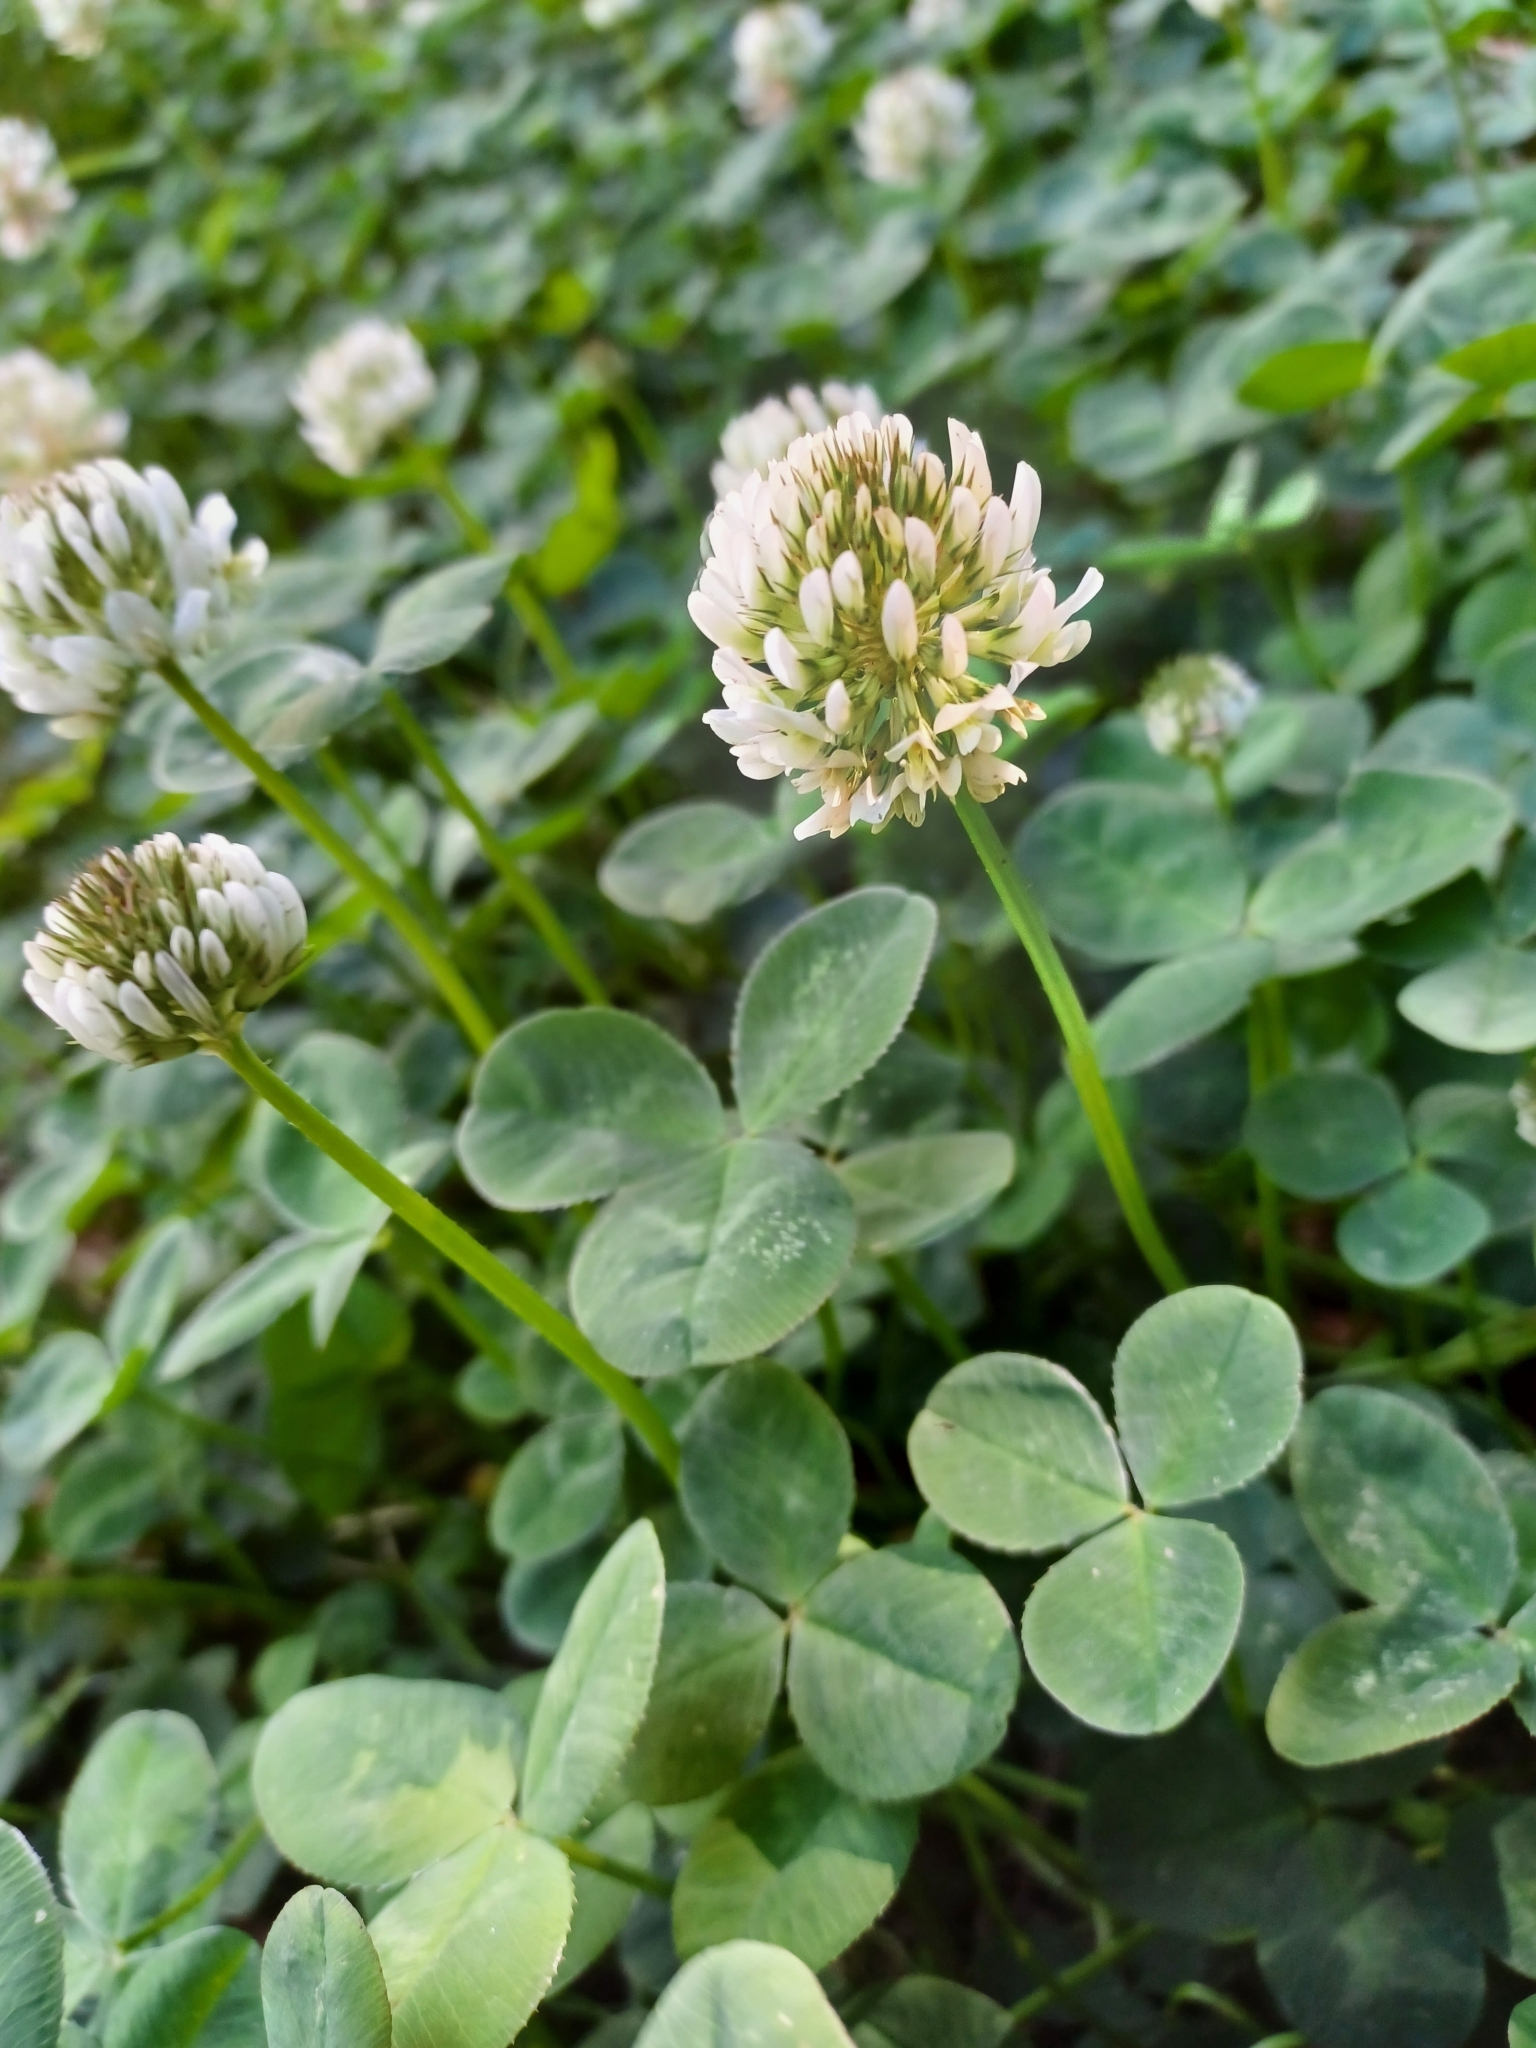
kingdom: Plantae
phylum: Tracheophyta
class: Magnoliopsida
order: Fabales
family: Fabaceae
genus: Trifolium
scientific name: Trifolium repens
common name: White clover
